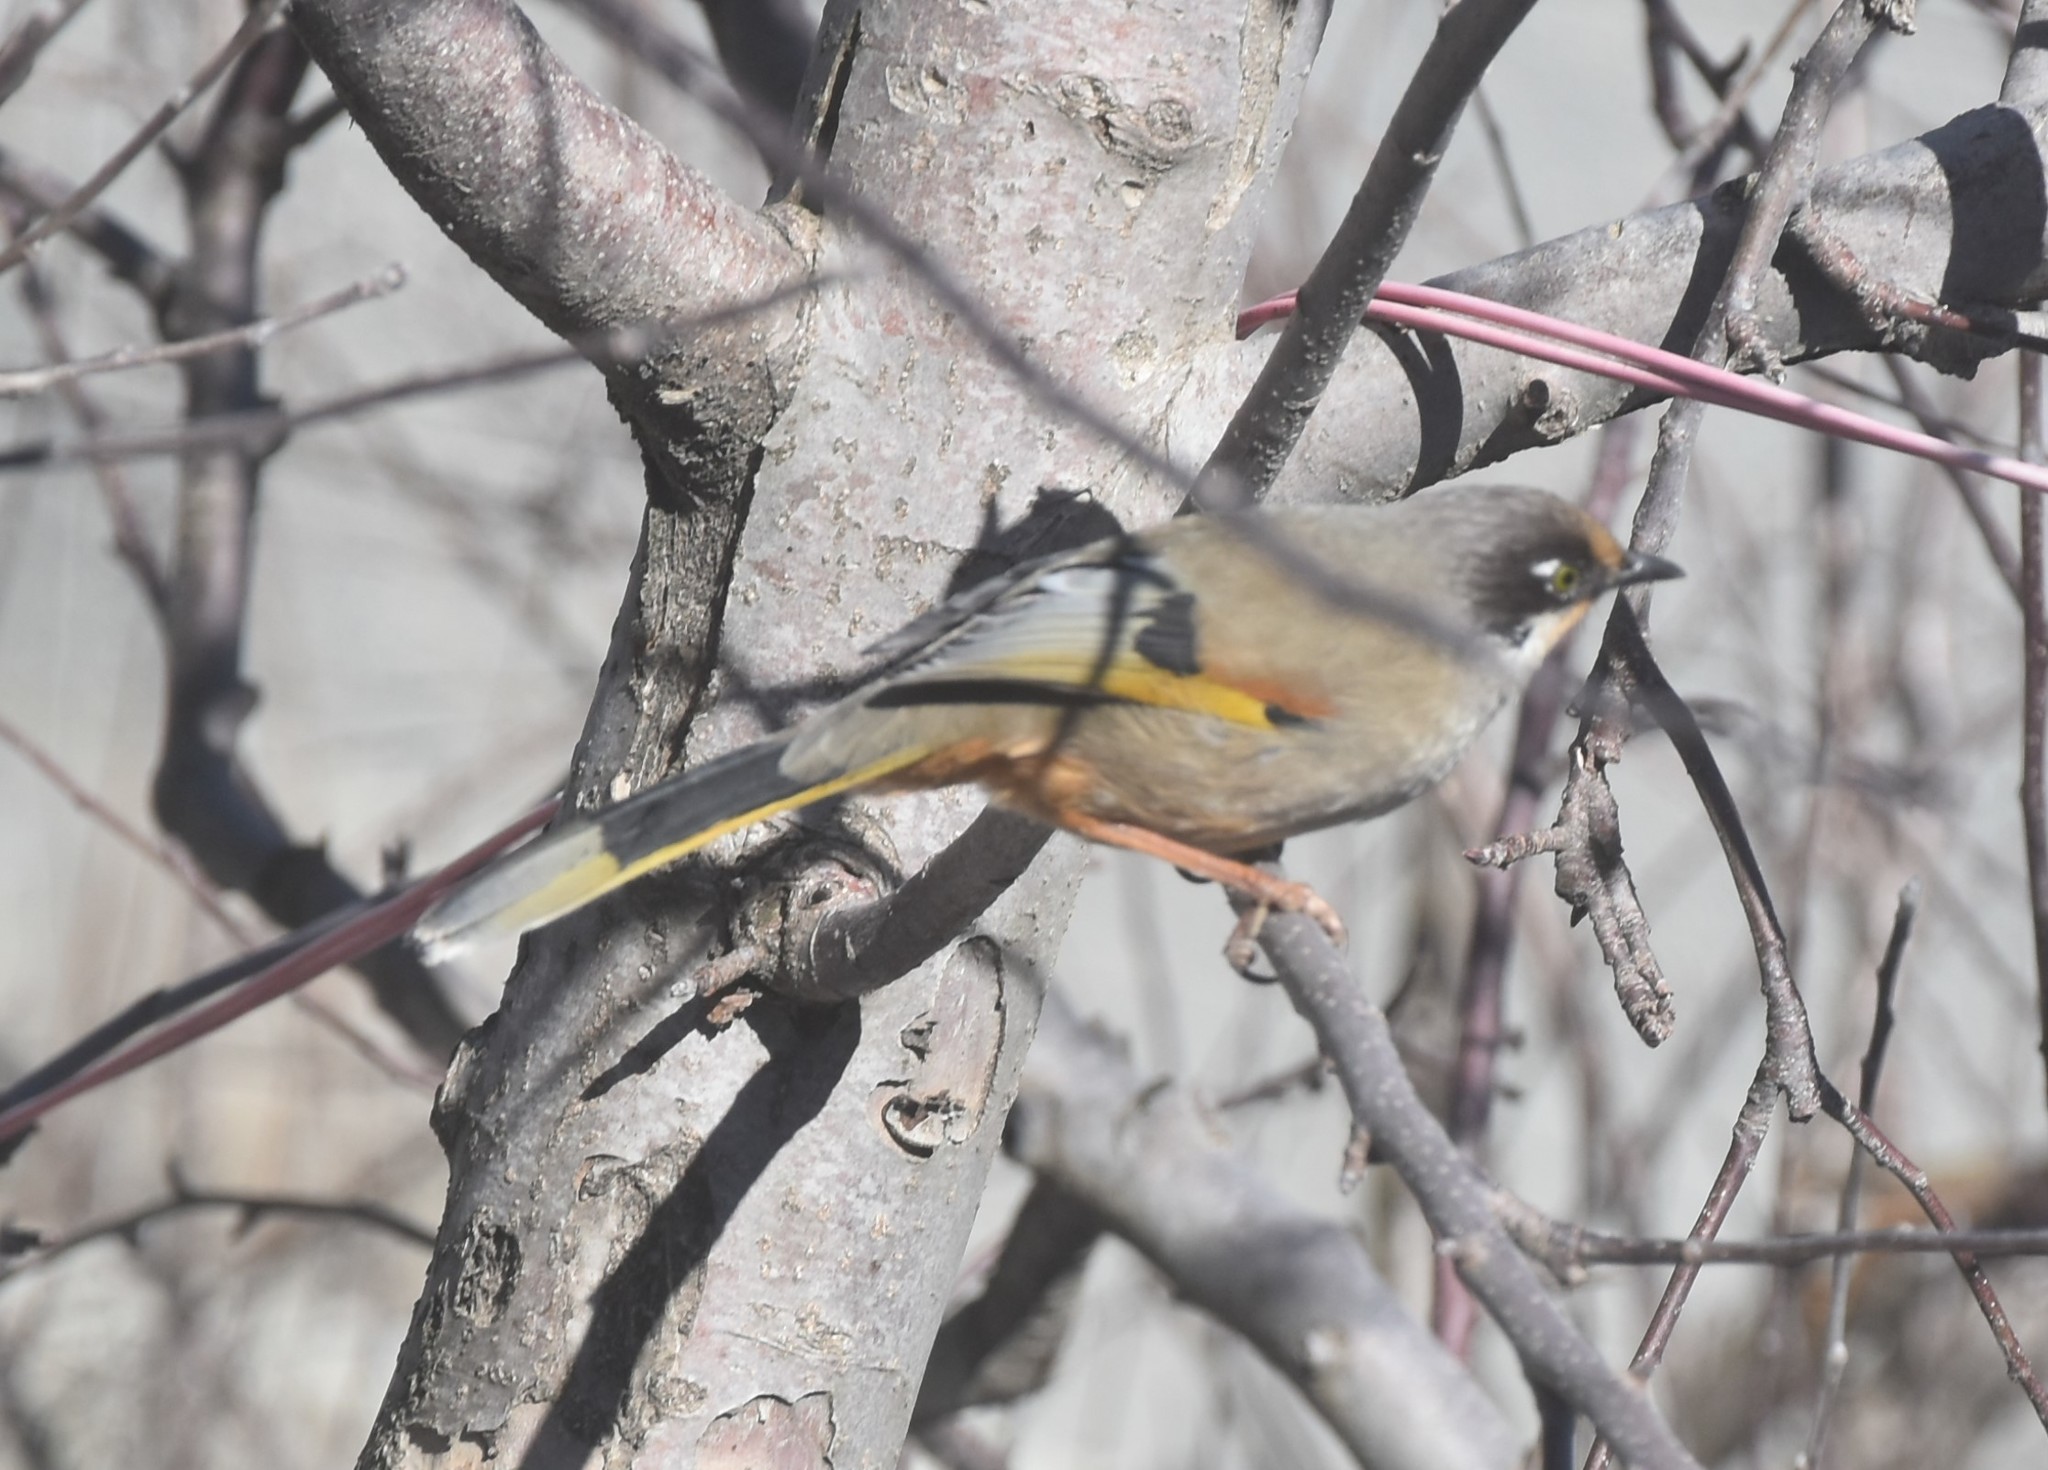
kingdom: Animalia
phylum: Chordata
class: Aves
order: Passeriformes
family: Leiothrichidae
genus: Trochalopteron
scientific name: Trochalopteron variegatum
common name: Variegated laughingthrush
